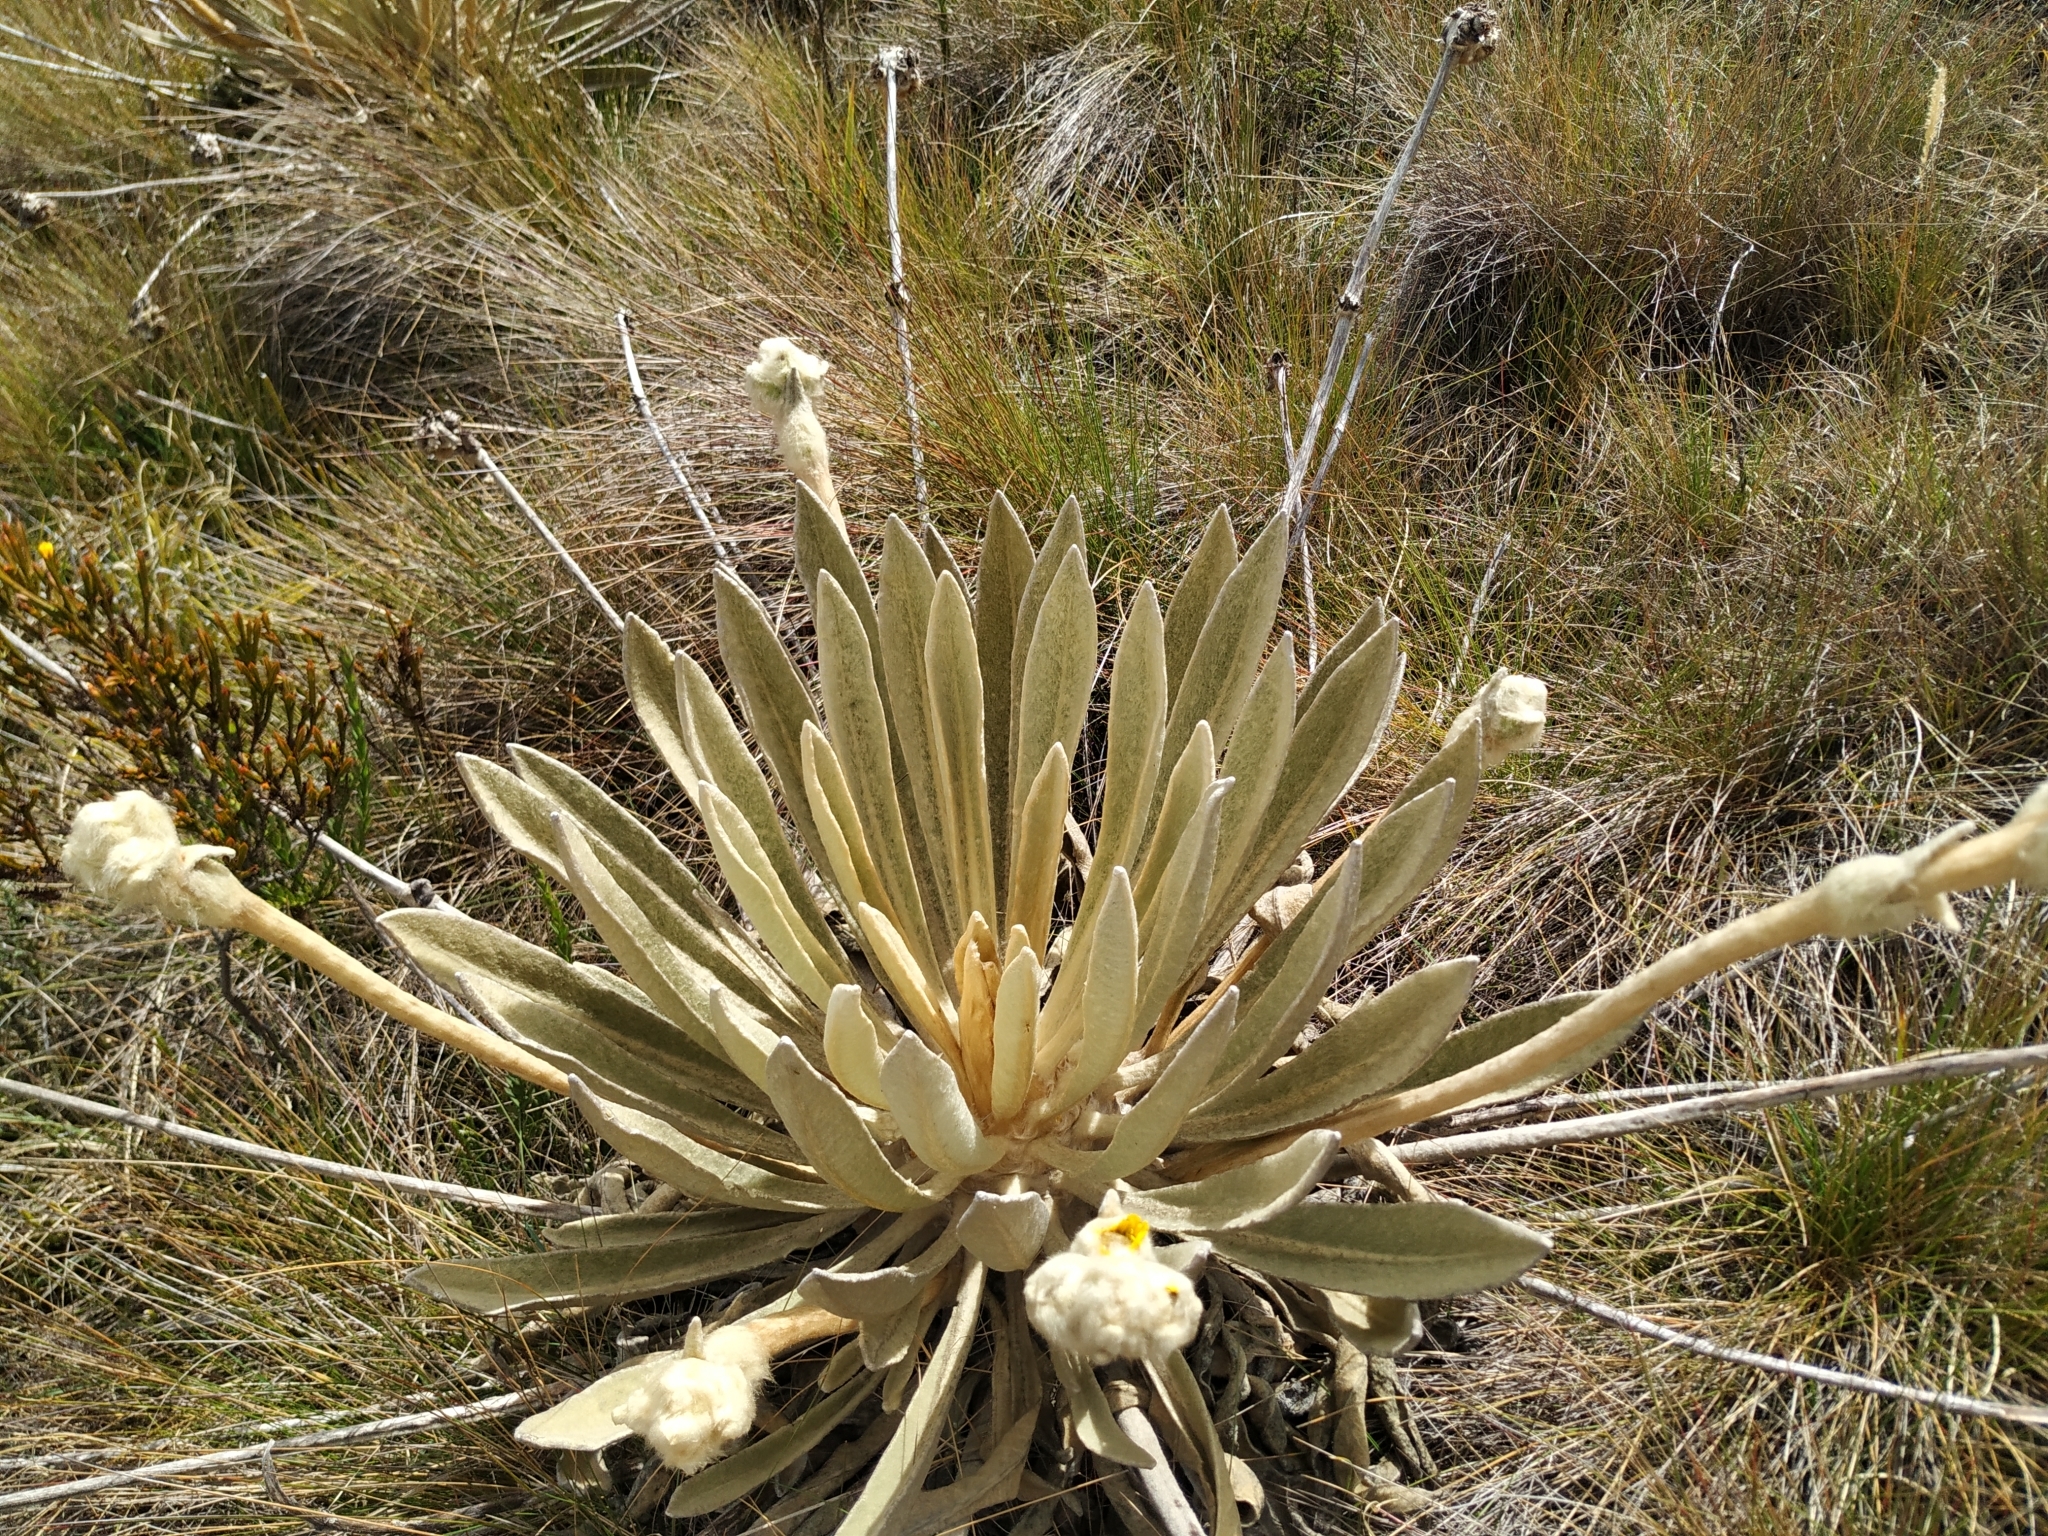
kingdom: Plantae
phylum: Tracheophyta
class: Magnoliopsida
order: Asterales
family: Asteraceae
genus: Espeletia
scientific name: Espeletia congestiflora
